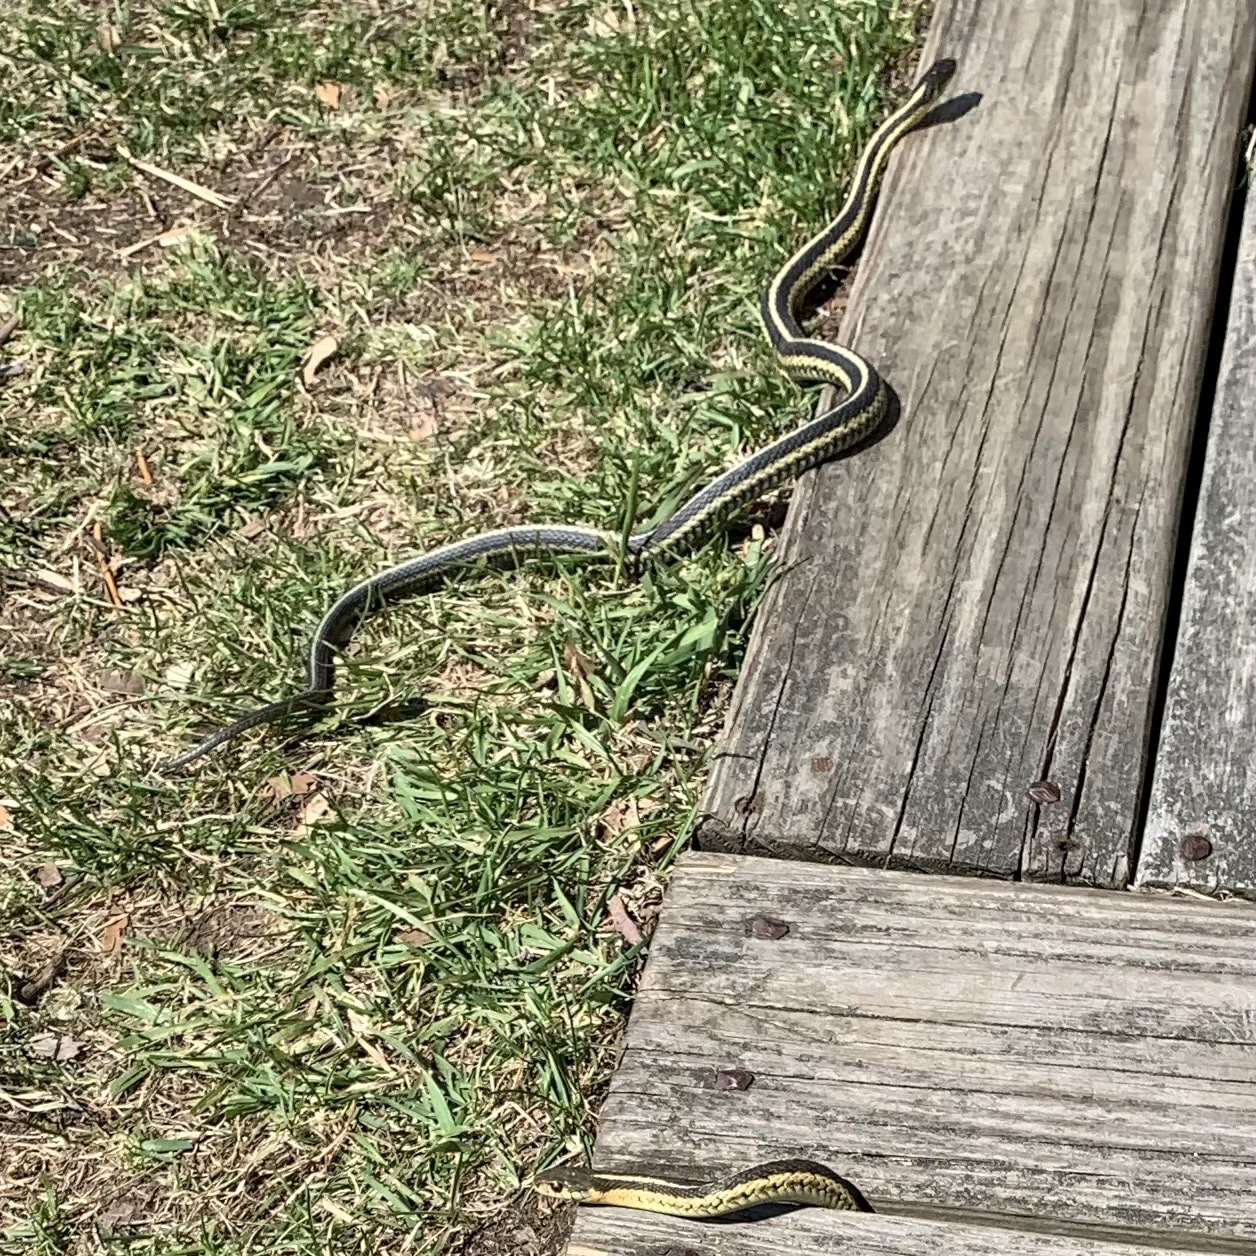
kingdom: Animalia
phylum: Chordata
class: Squamata
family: Colubridae
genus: Thamnophis
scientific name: Thamnophis sirtalis
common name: Common garter snake
